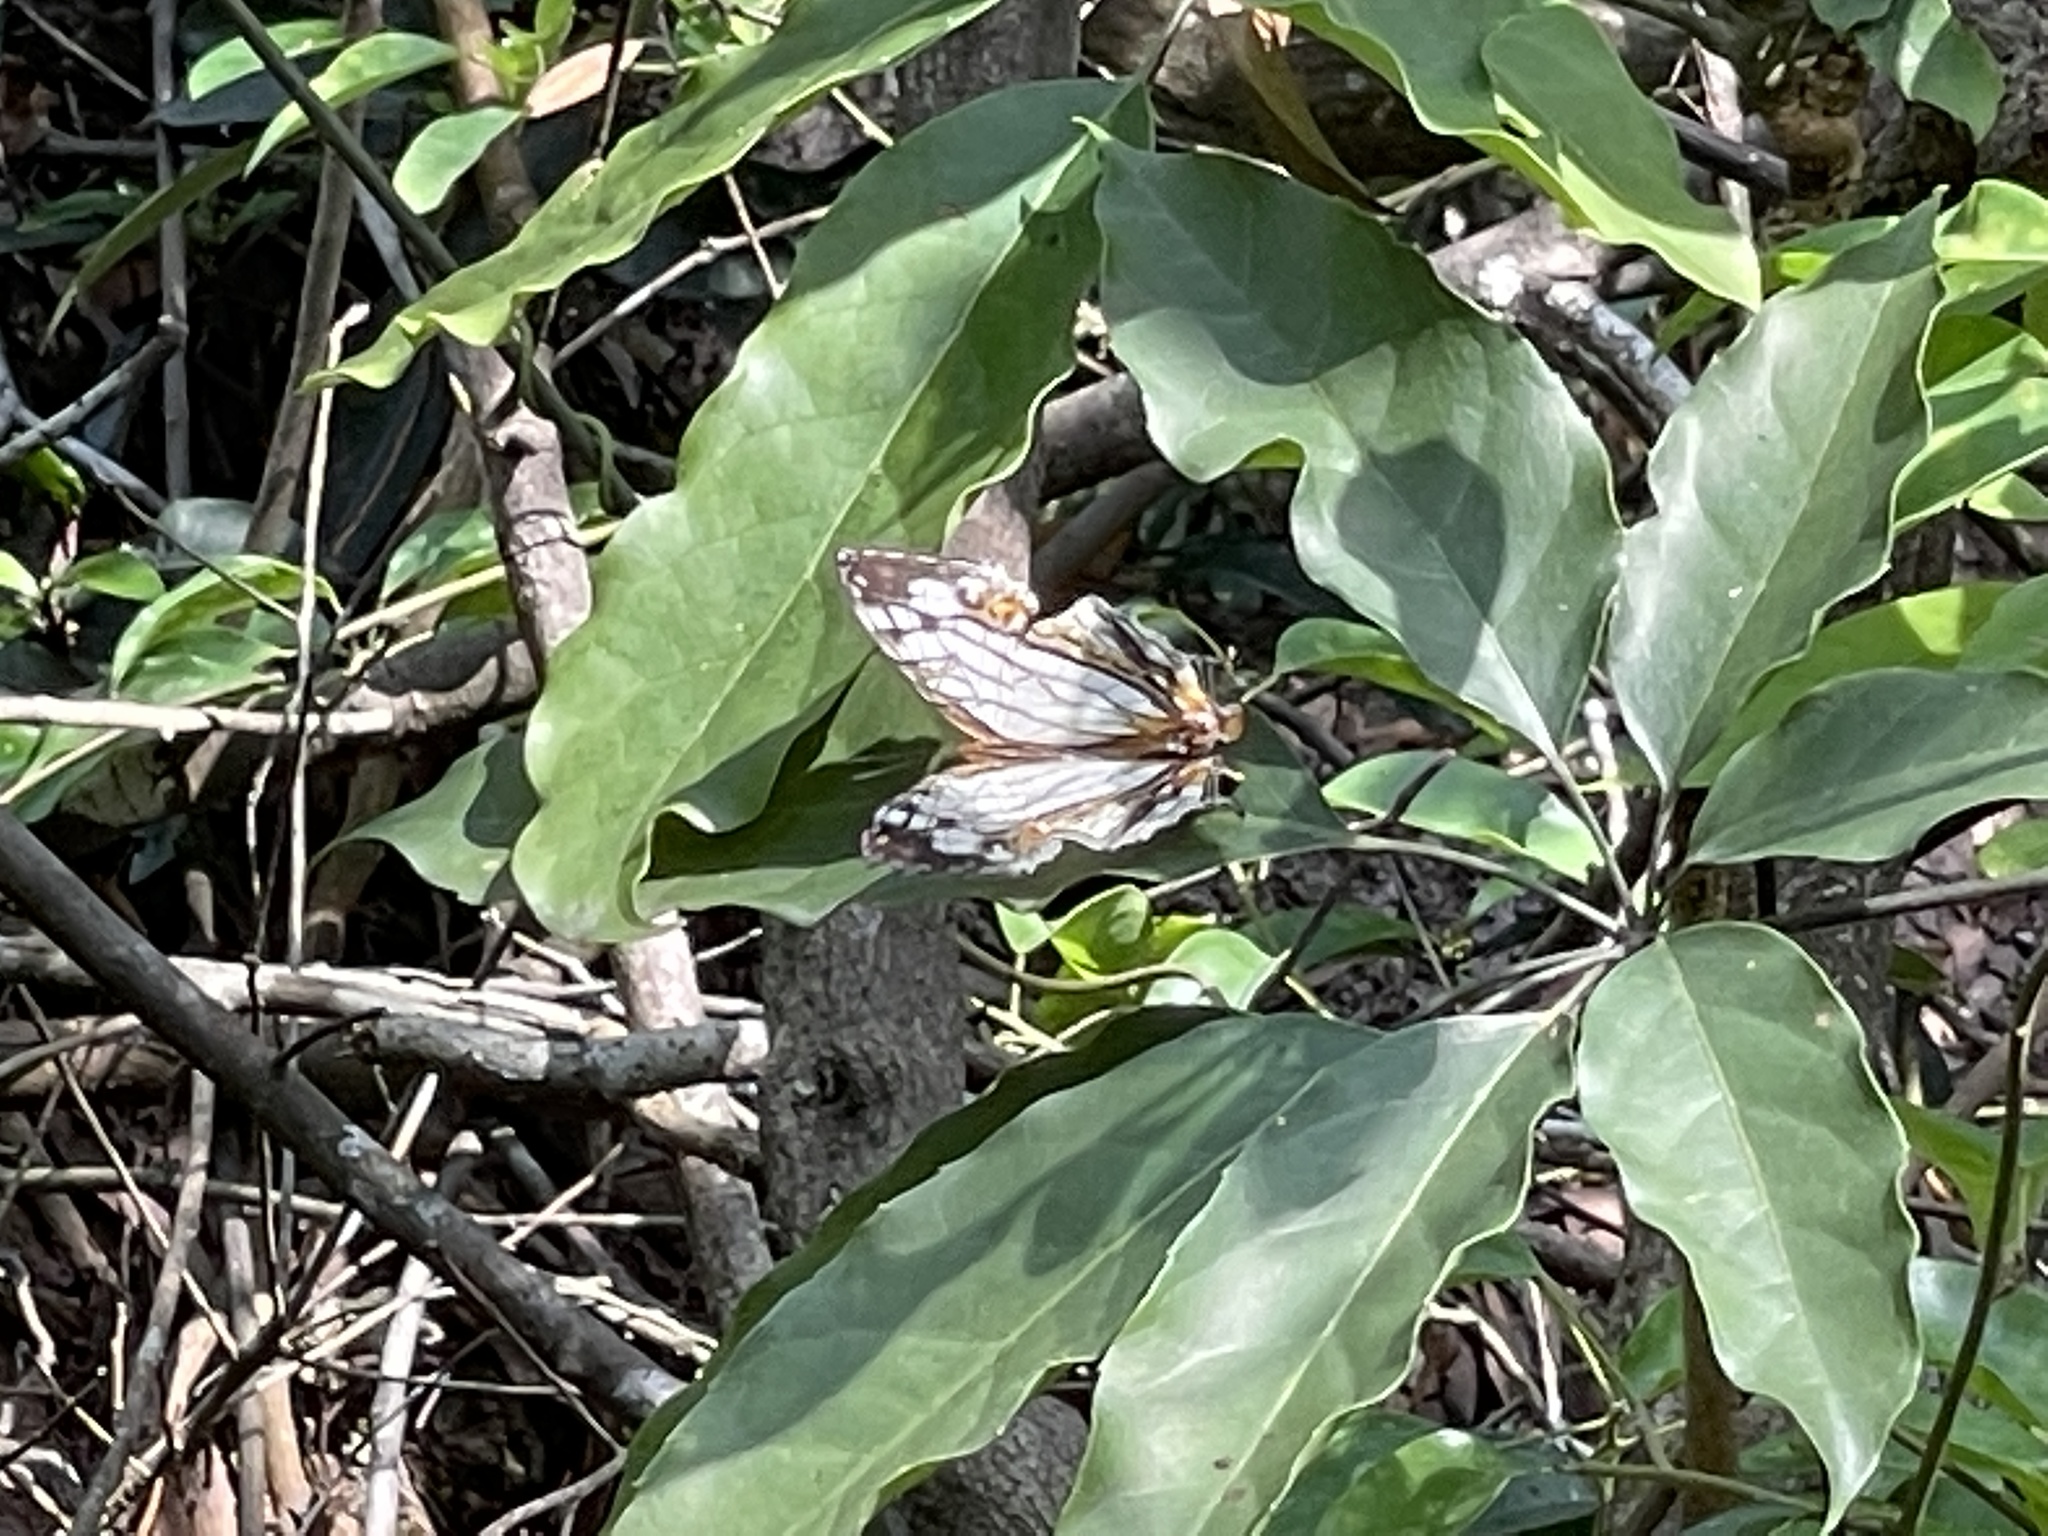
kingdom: Animalia
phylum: Arthropoda
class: Insecta
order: Lepidoptera
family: Nymphalidae
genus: Cyrestis
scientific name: Cyrestis thyodamas
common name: Common mapwing
